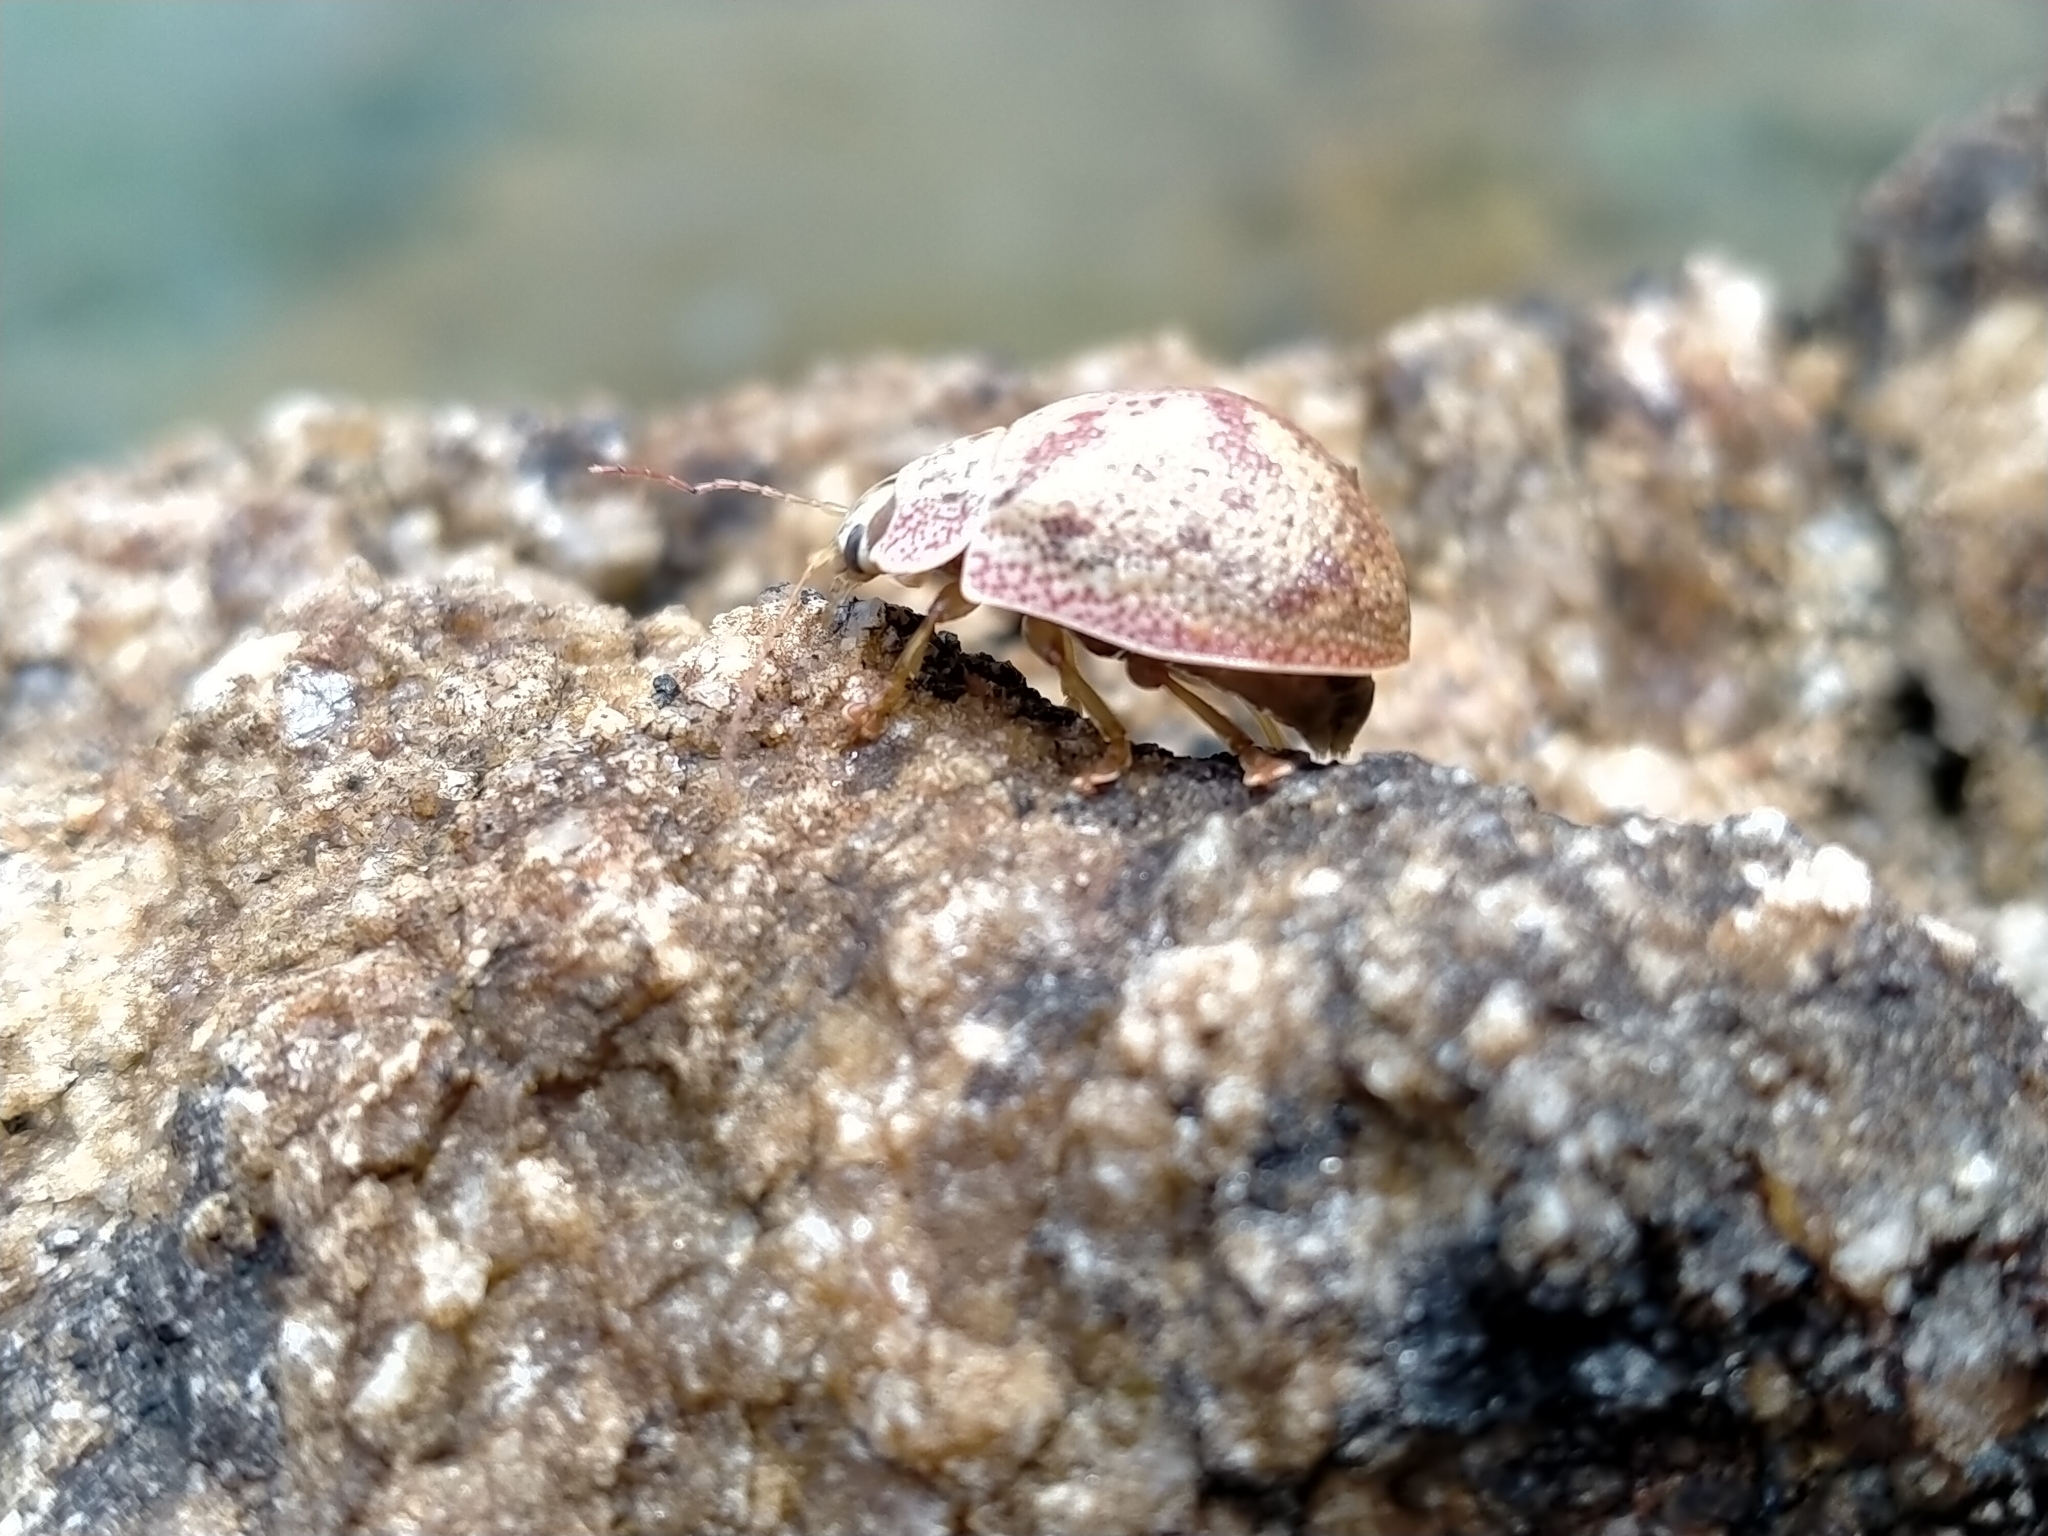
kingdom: Animalia
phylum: Arthropoda
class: Insecta
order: Coleoptera
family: Chrysomelidae
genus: Paropsis
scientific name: Paropsis charybdis
